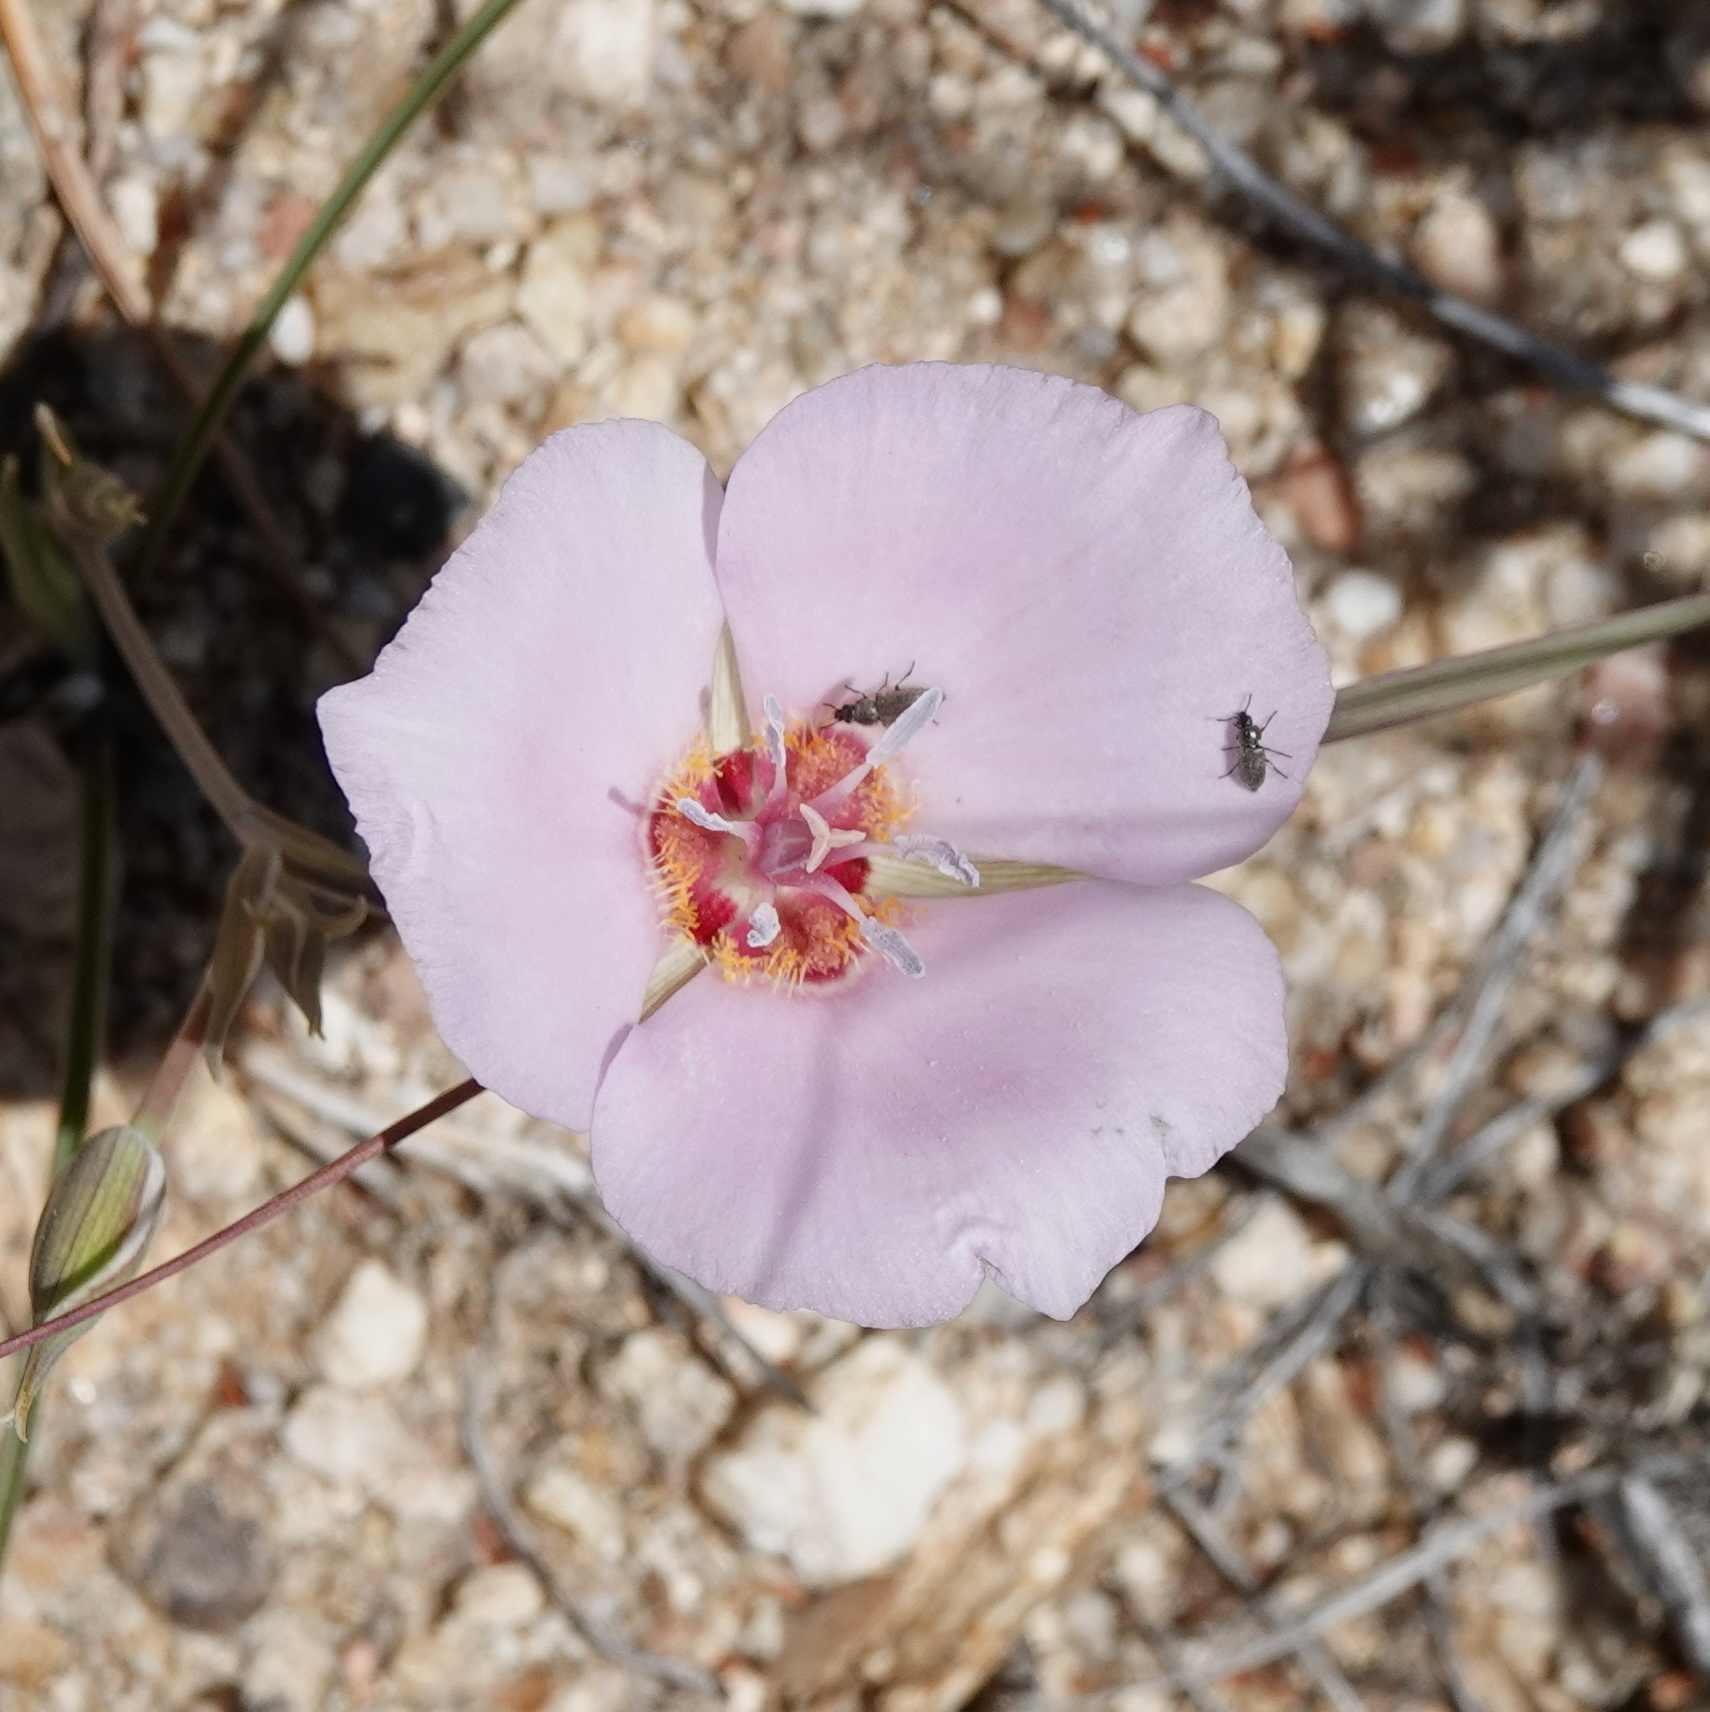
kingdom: Plantae
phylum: Tracheophyta
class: Liliopsida
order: Liliales
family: Liliaceae
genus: Calochortus
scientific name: Calochortus palmeri
